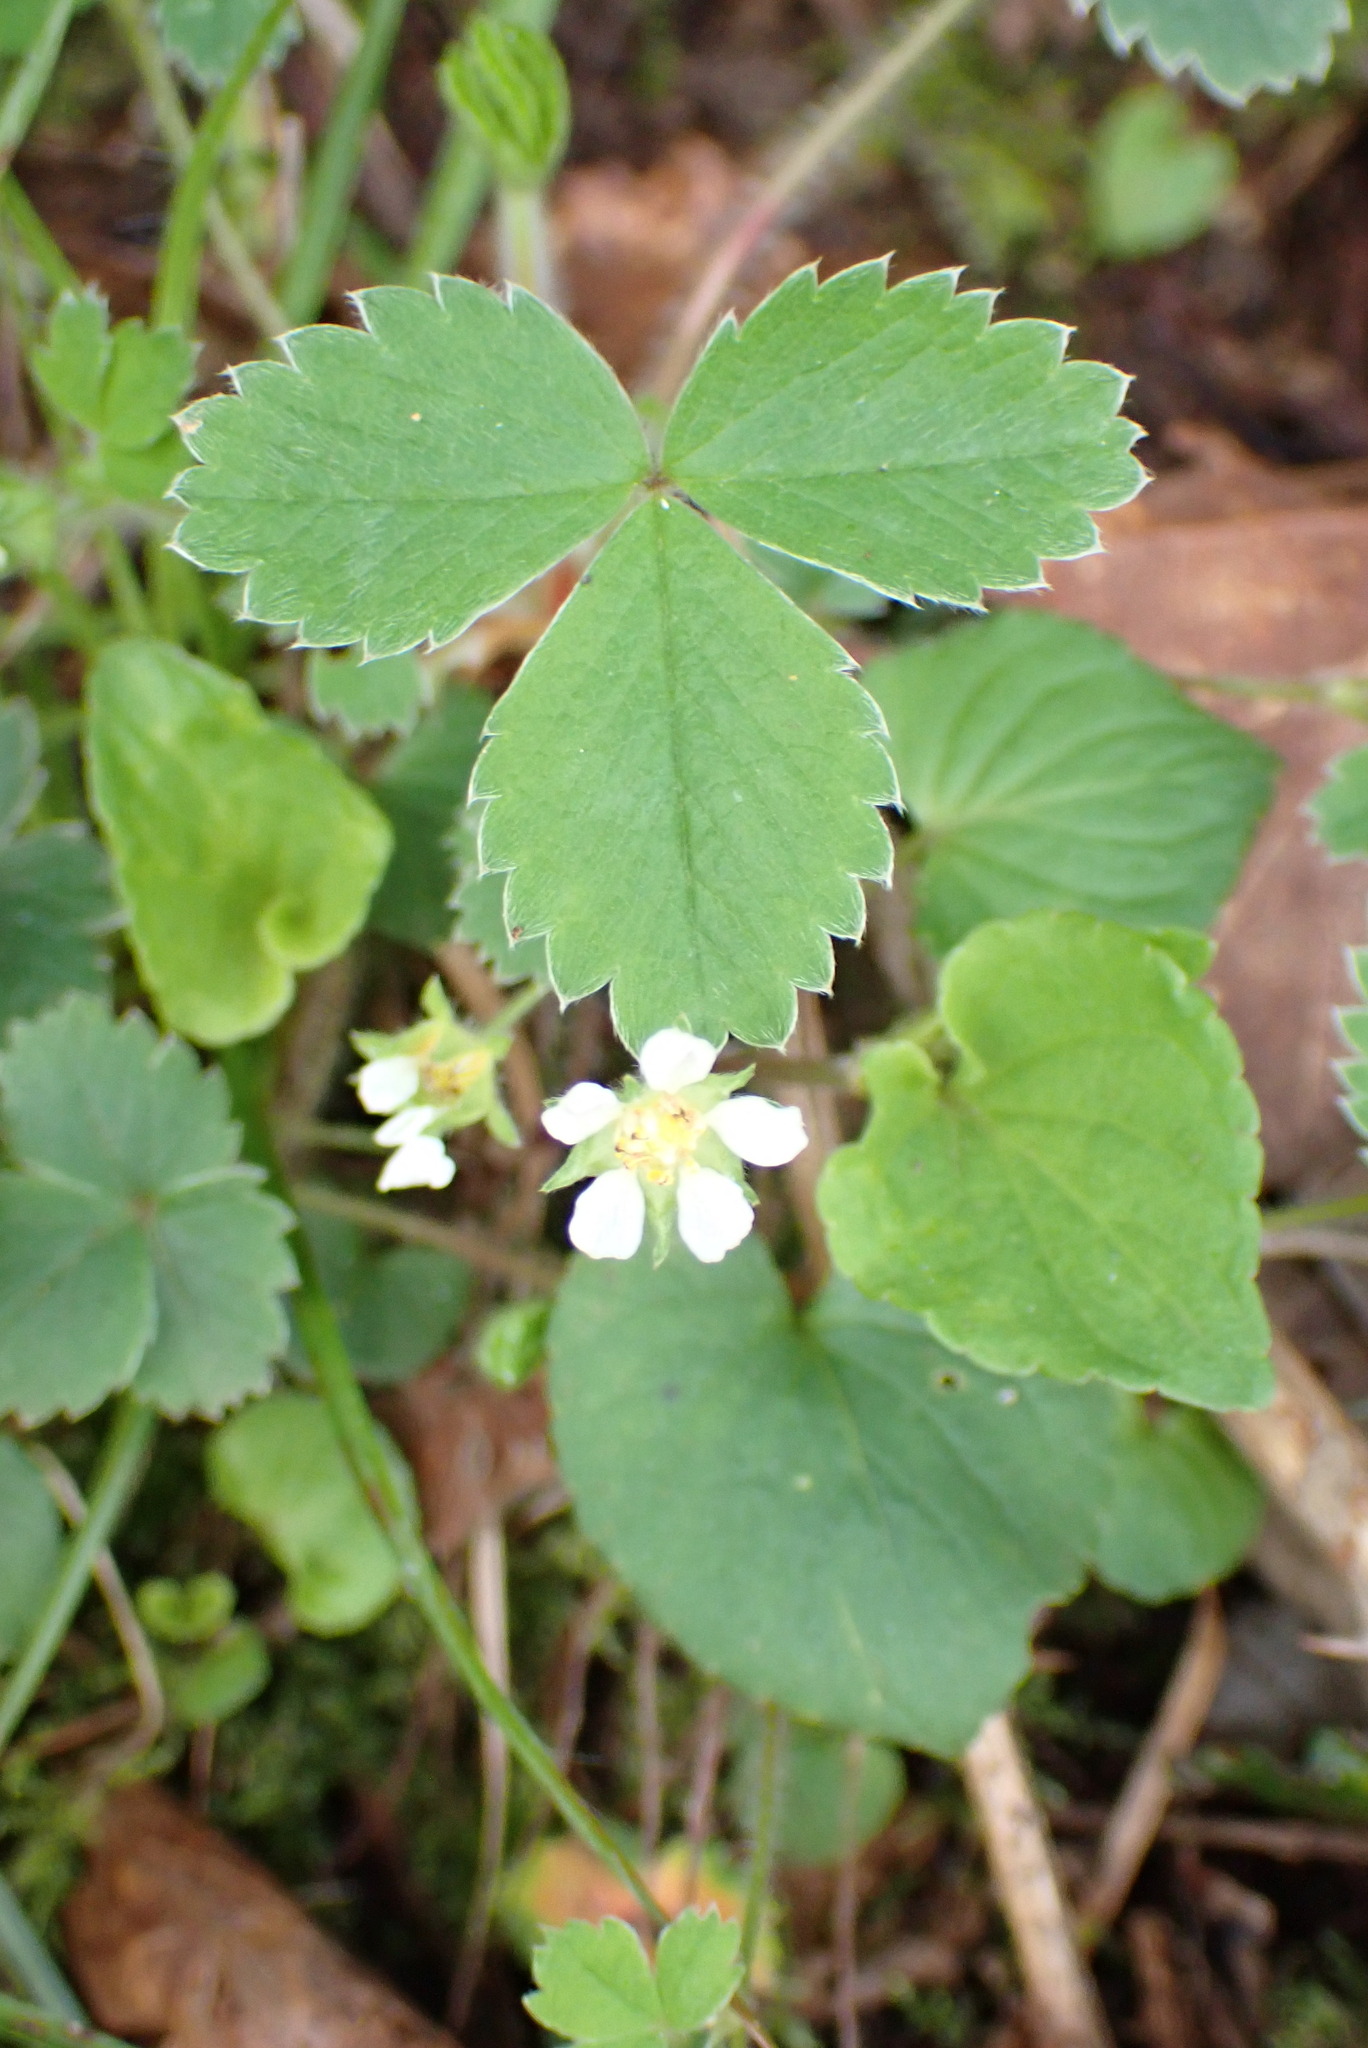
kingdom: Plantae
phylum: Tracheophyta
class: Magnoliopsida
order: Rosales
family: Rosaceae
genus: Potentilla
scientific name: Potentilla sterilis
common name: Barren strawberry
